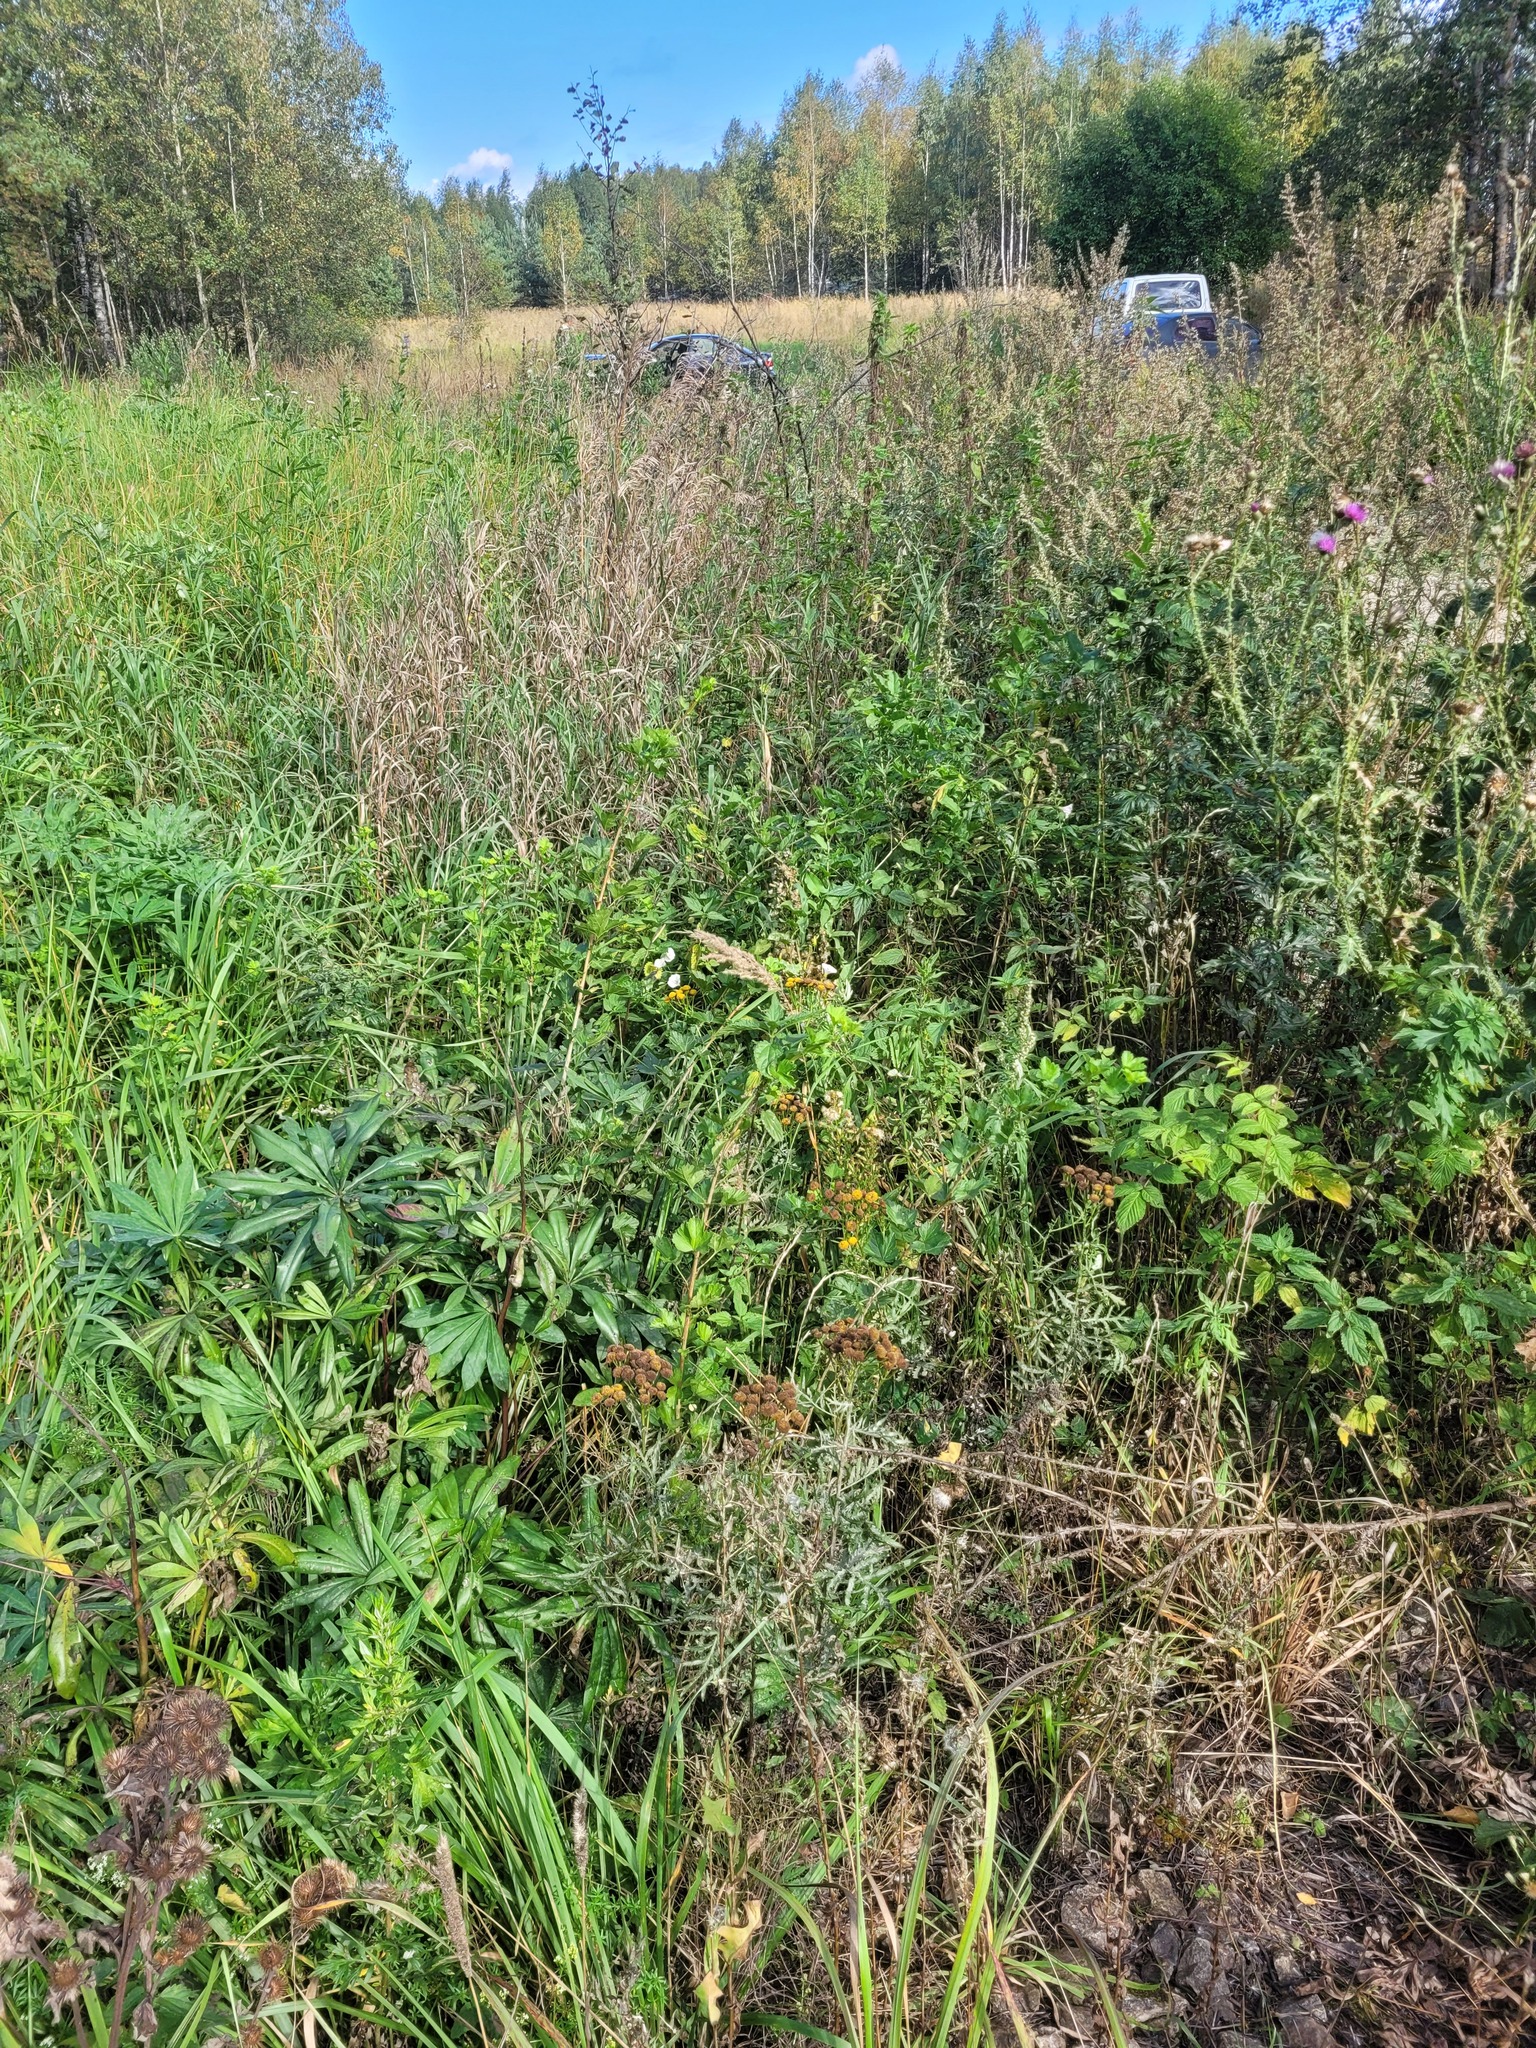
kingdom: Plantae
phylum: Tracheophyta
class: Magnoliopsida
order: Saxifragales
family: Grossulariaceae
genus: Ribes
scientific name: Ribes uva-crispa
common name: Gooseberry
